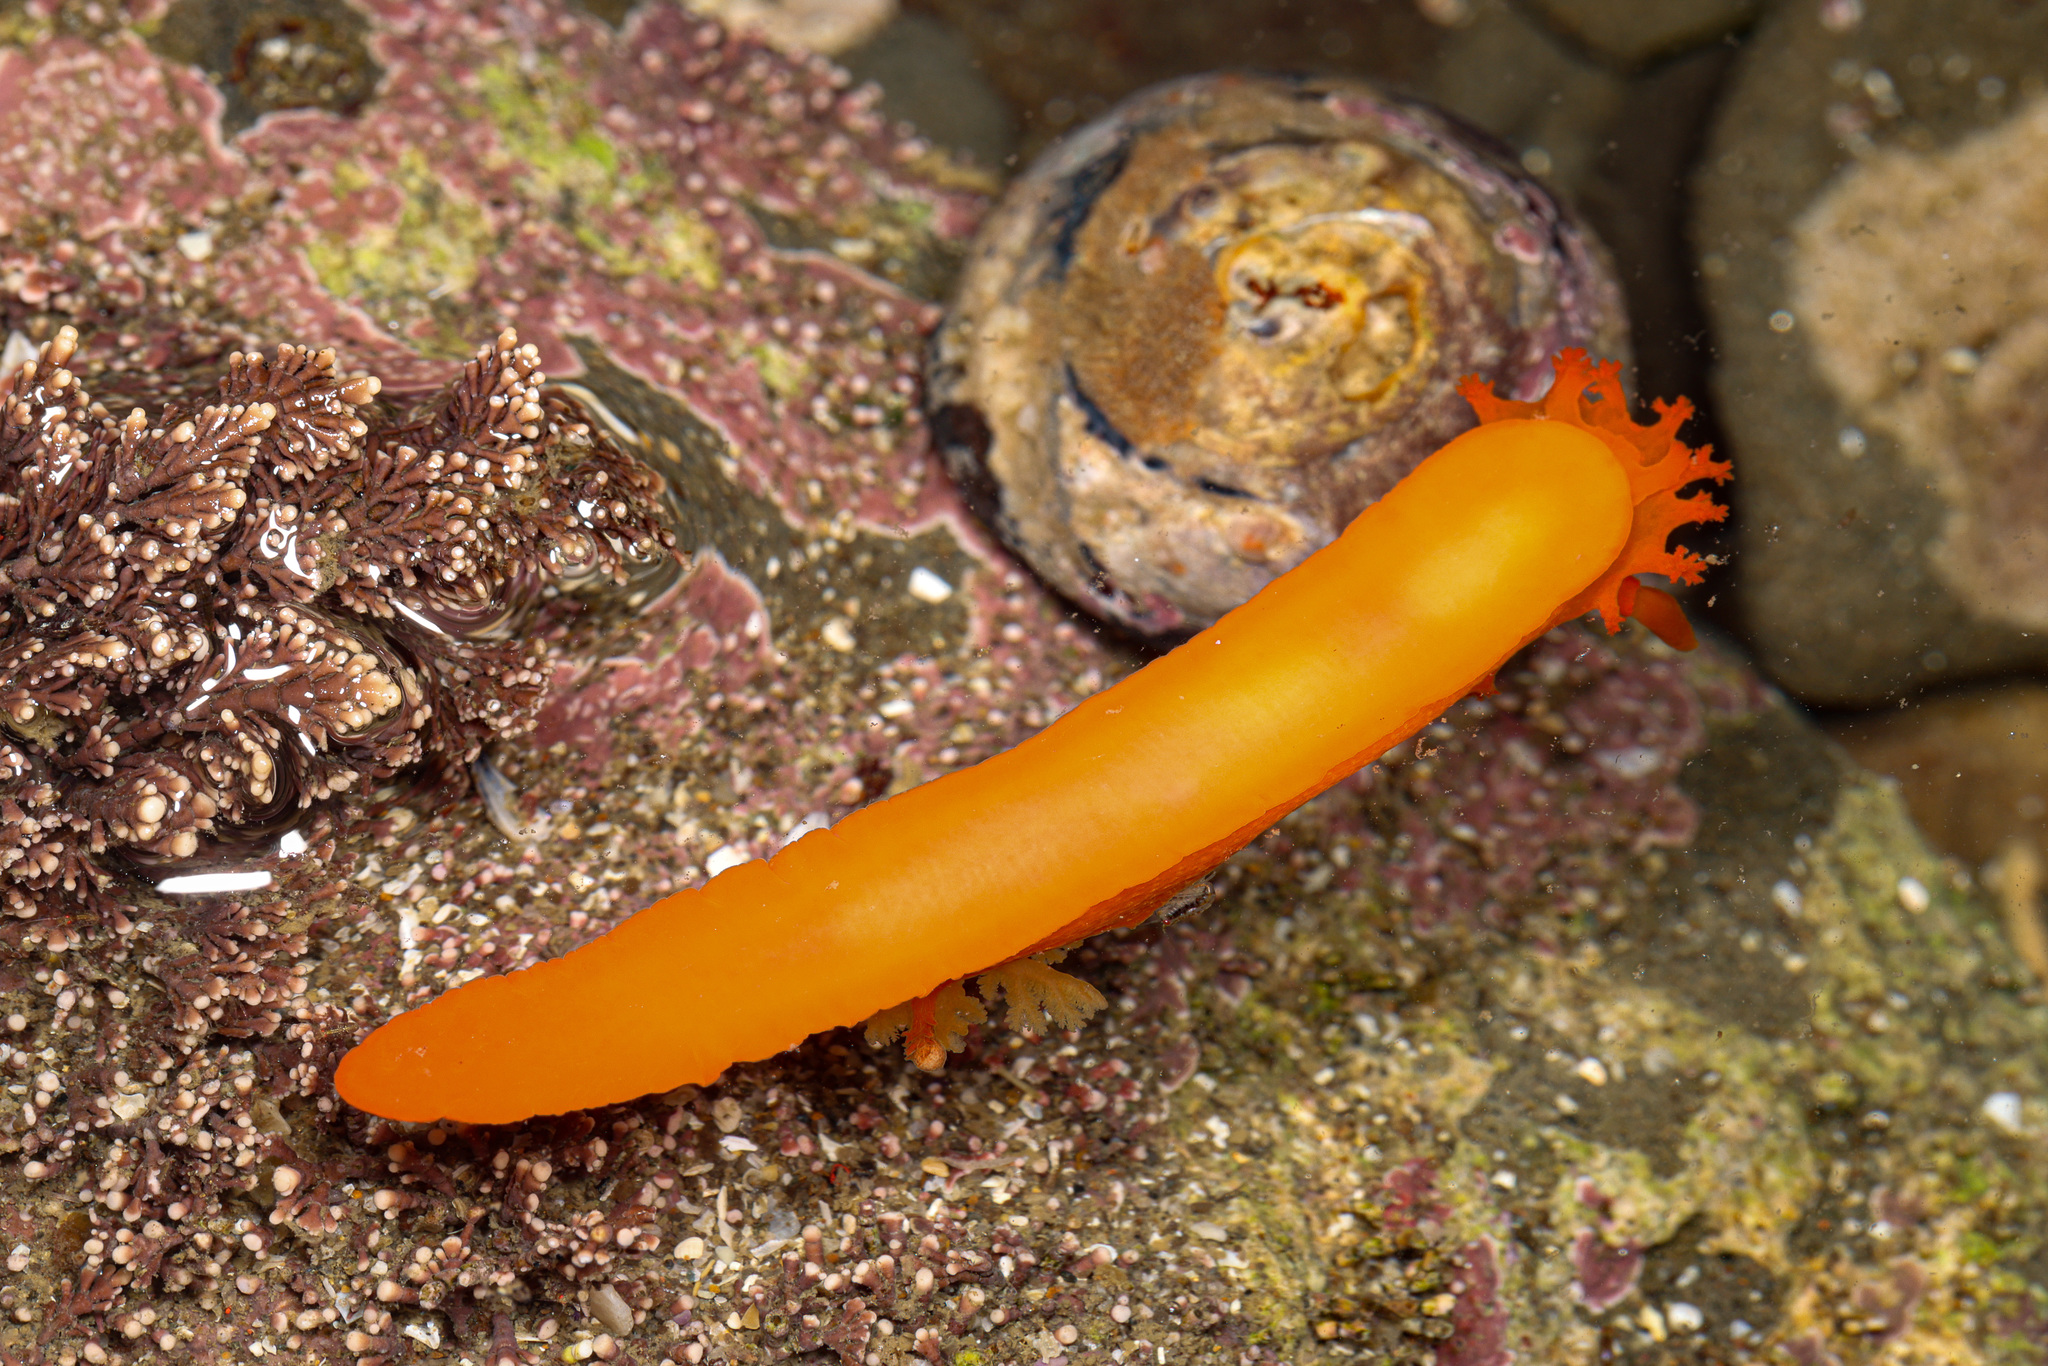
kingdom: Animalia
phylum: Mollusca
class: Gastropoda
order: Nudibranchia
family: Polyceridae
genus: Triopha
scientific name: Triopha maculata
